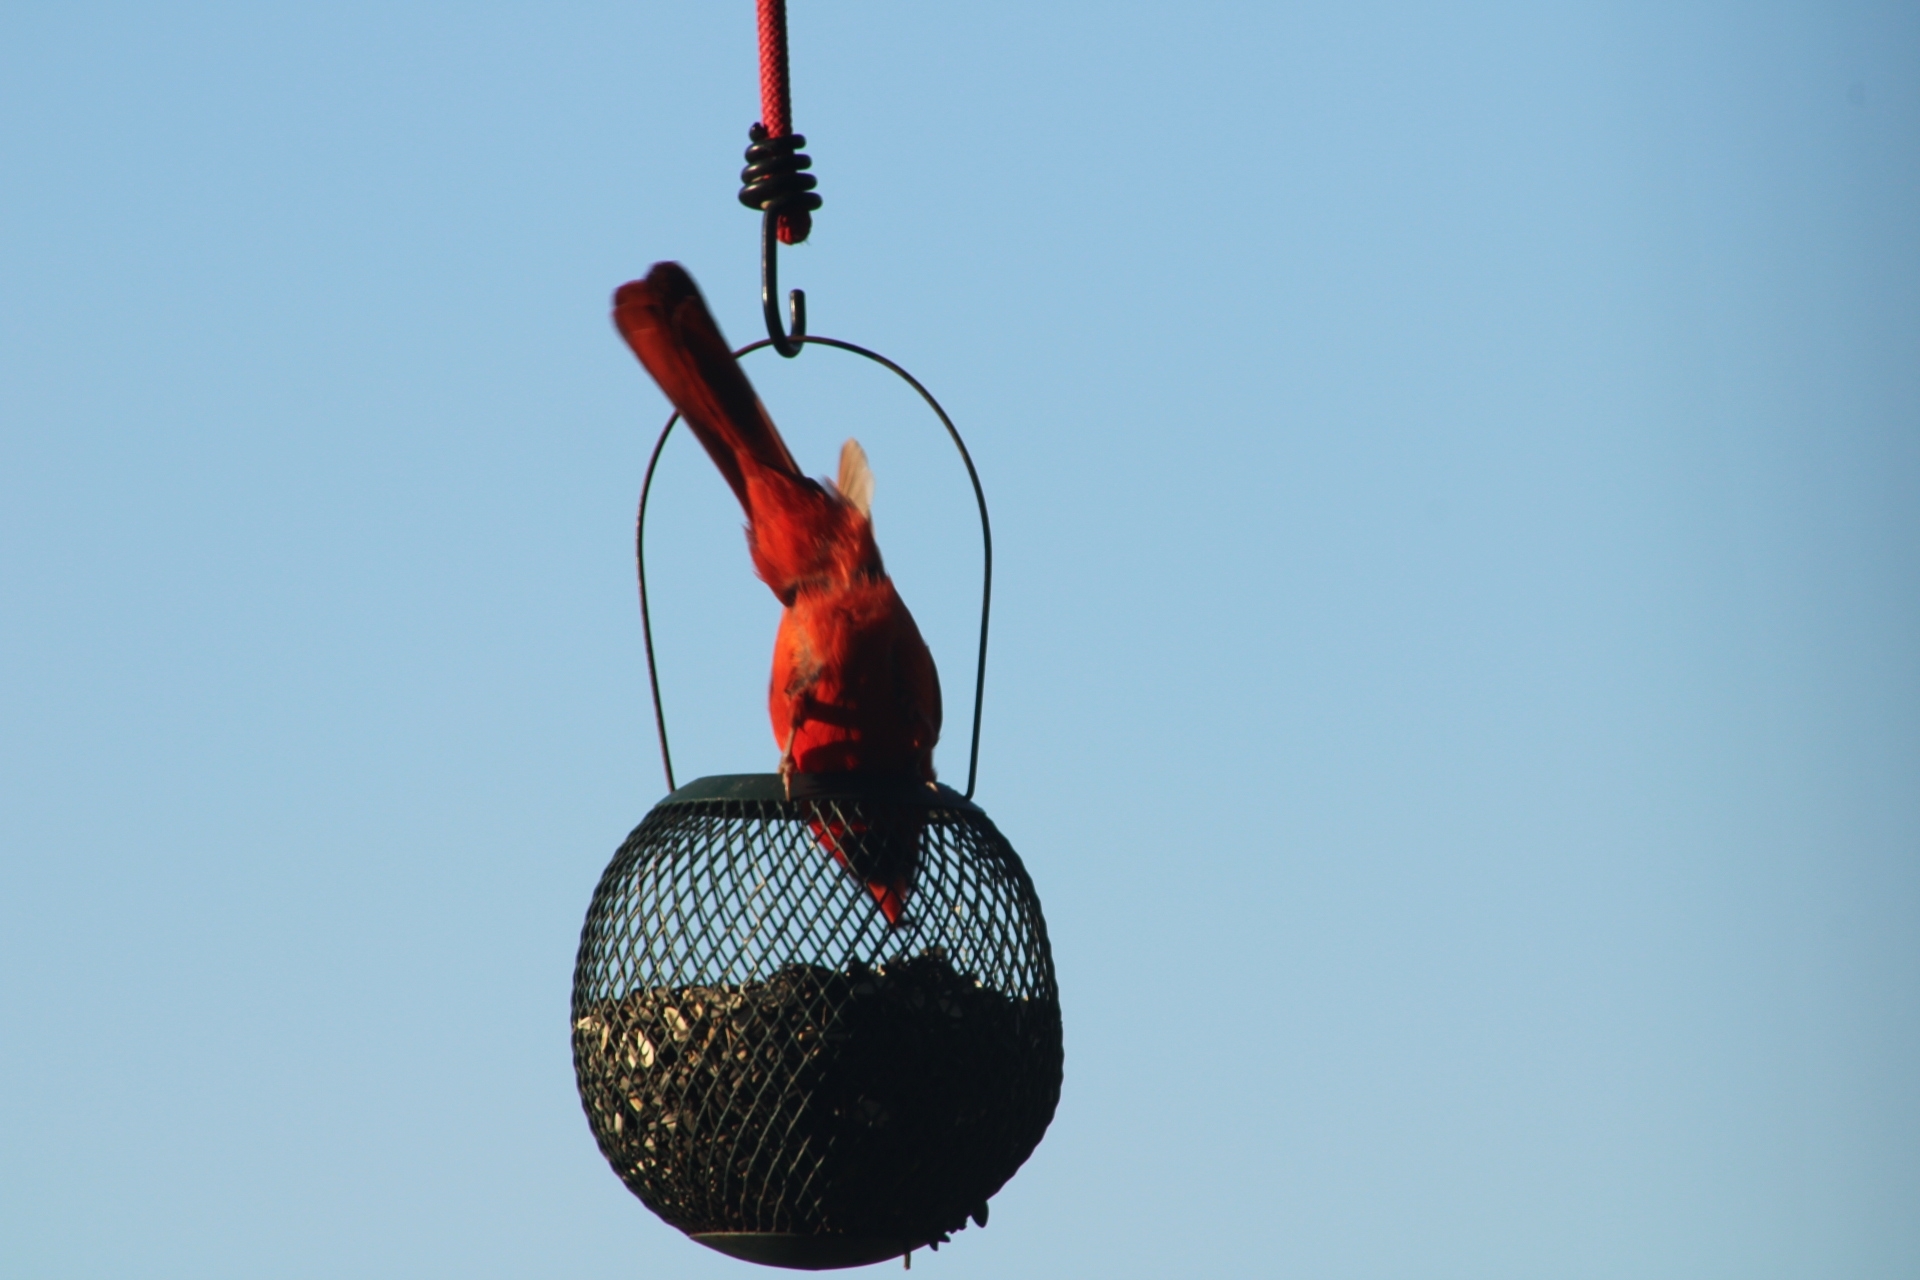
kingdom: Animalia
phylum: Chordata
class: Aves
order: Passeriformes
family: Cardinalidae
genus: Cardinalis
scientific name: Cardinalis cardinalis
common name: Northern cardinal
